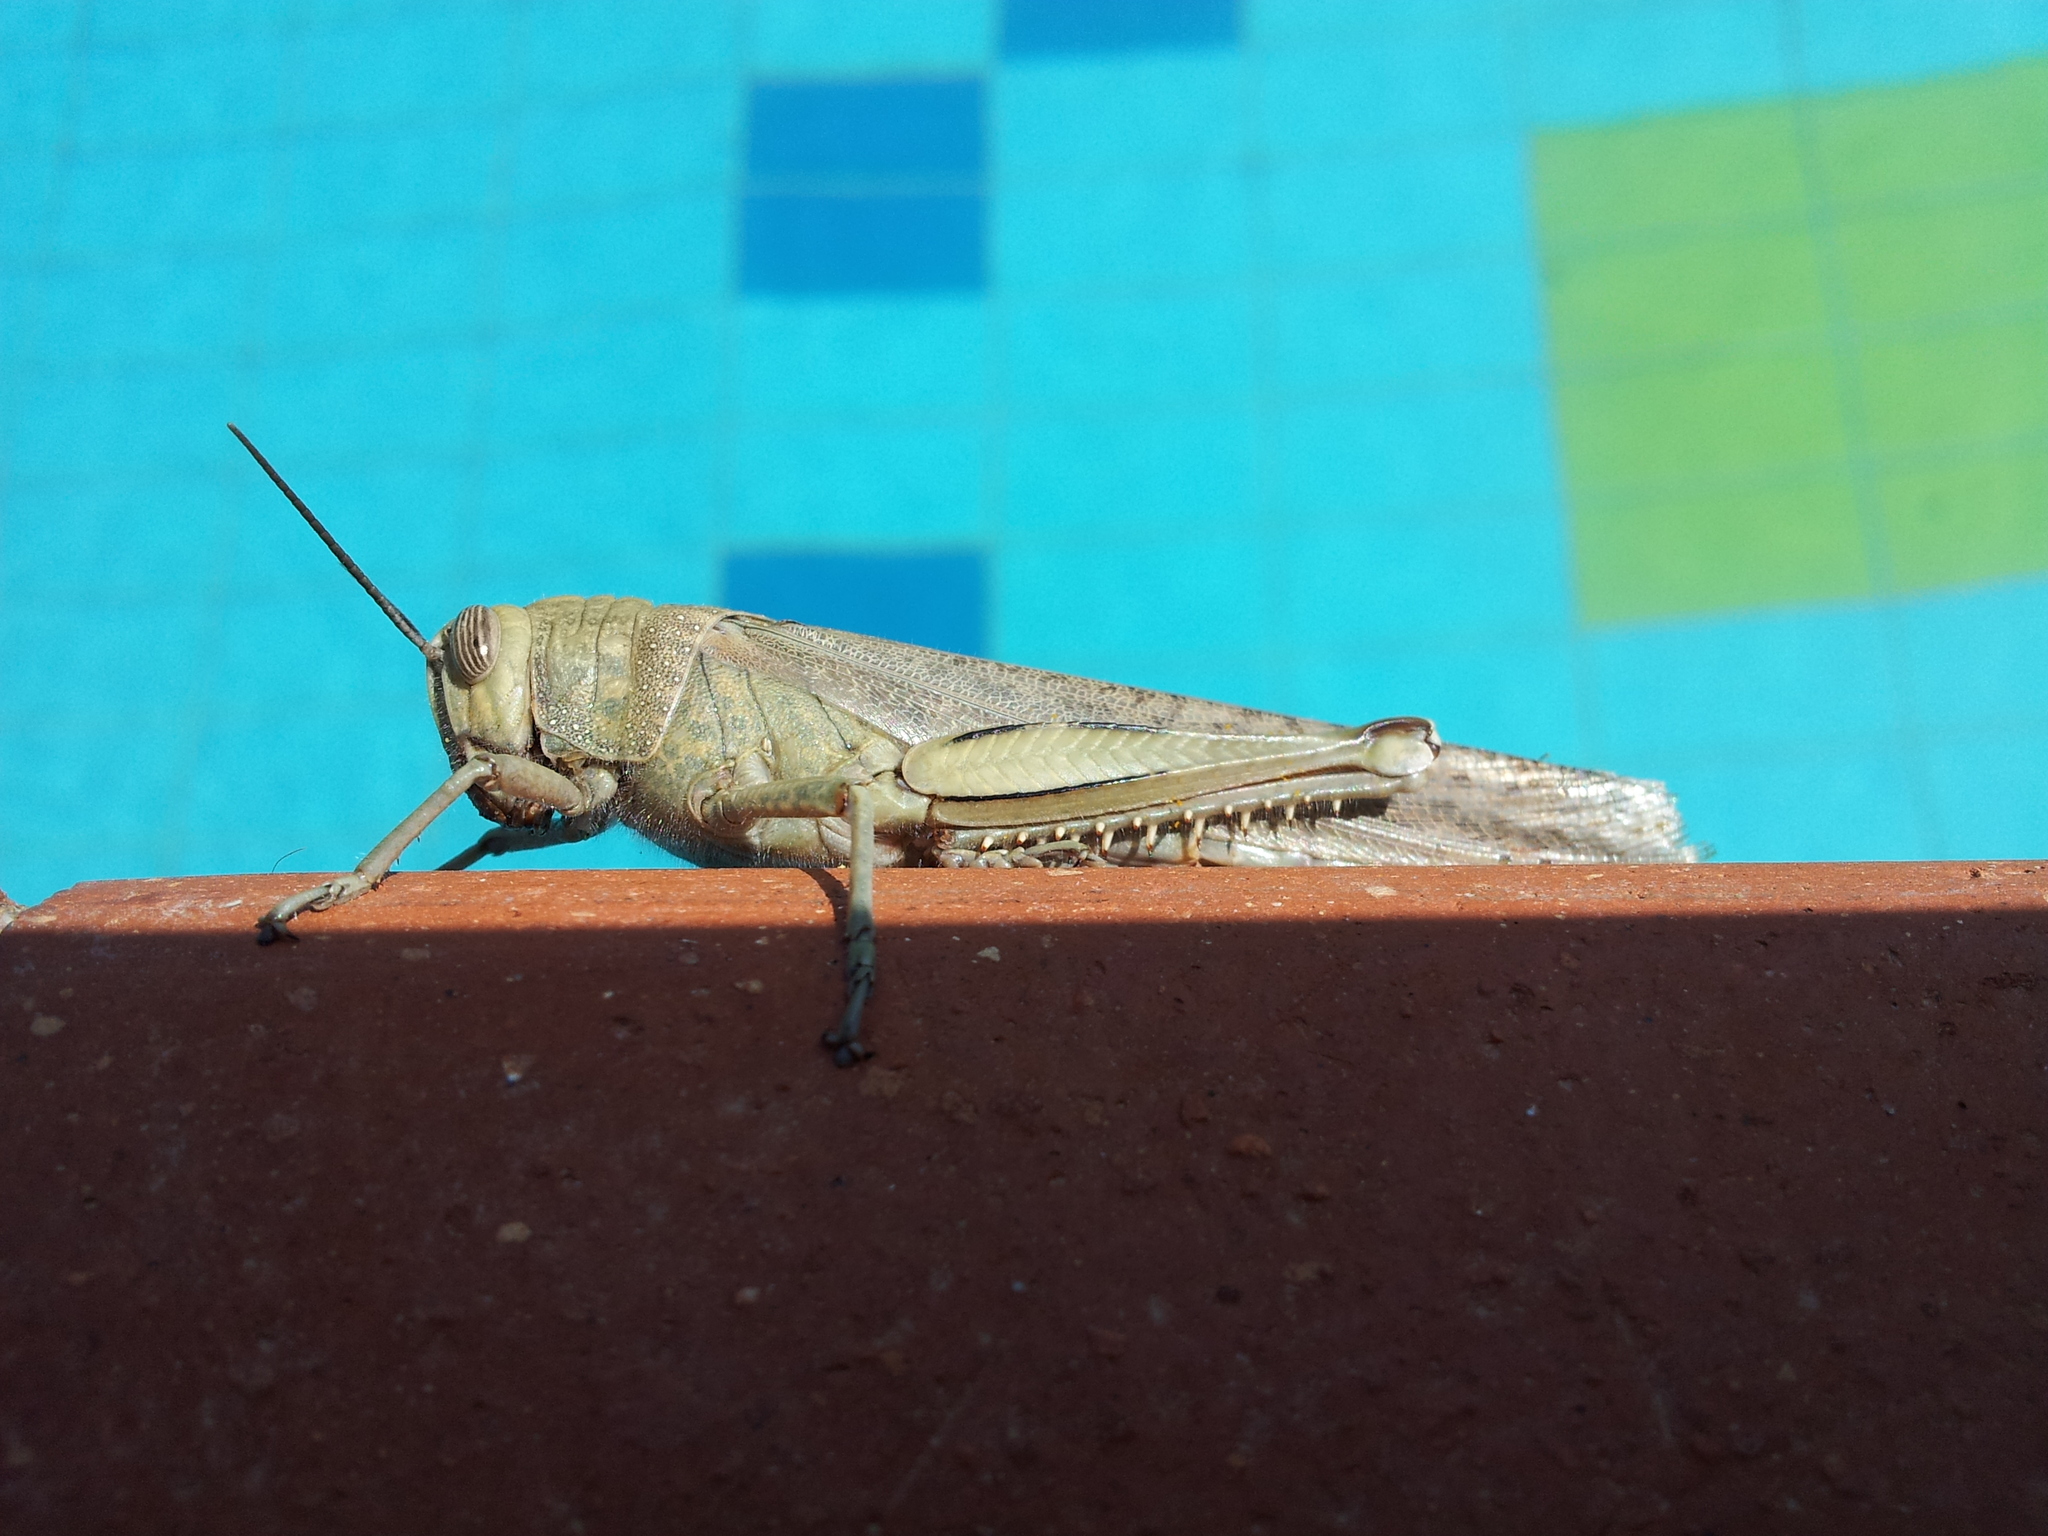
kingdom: Animalia
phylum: Arthropoda
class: Insecta
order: Orthoptera
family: Acrididae
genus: Anacridium
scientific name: Anacridium aegyptium
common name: Egyptian grasshopper
